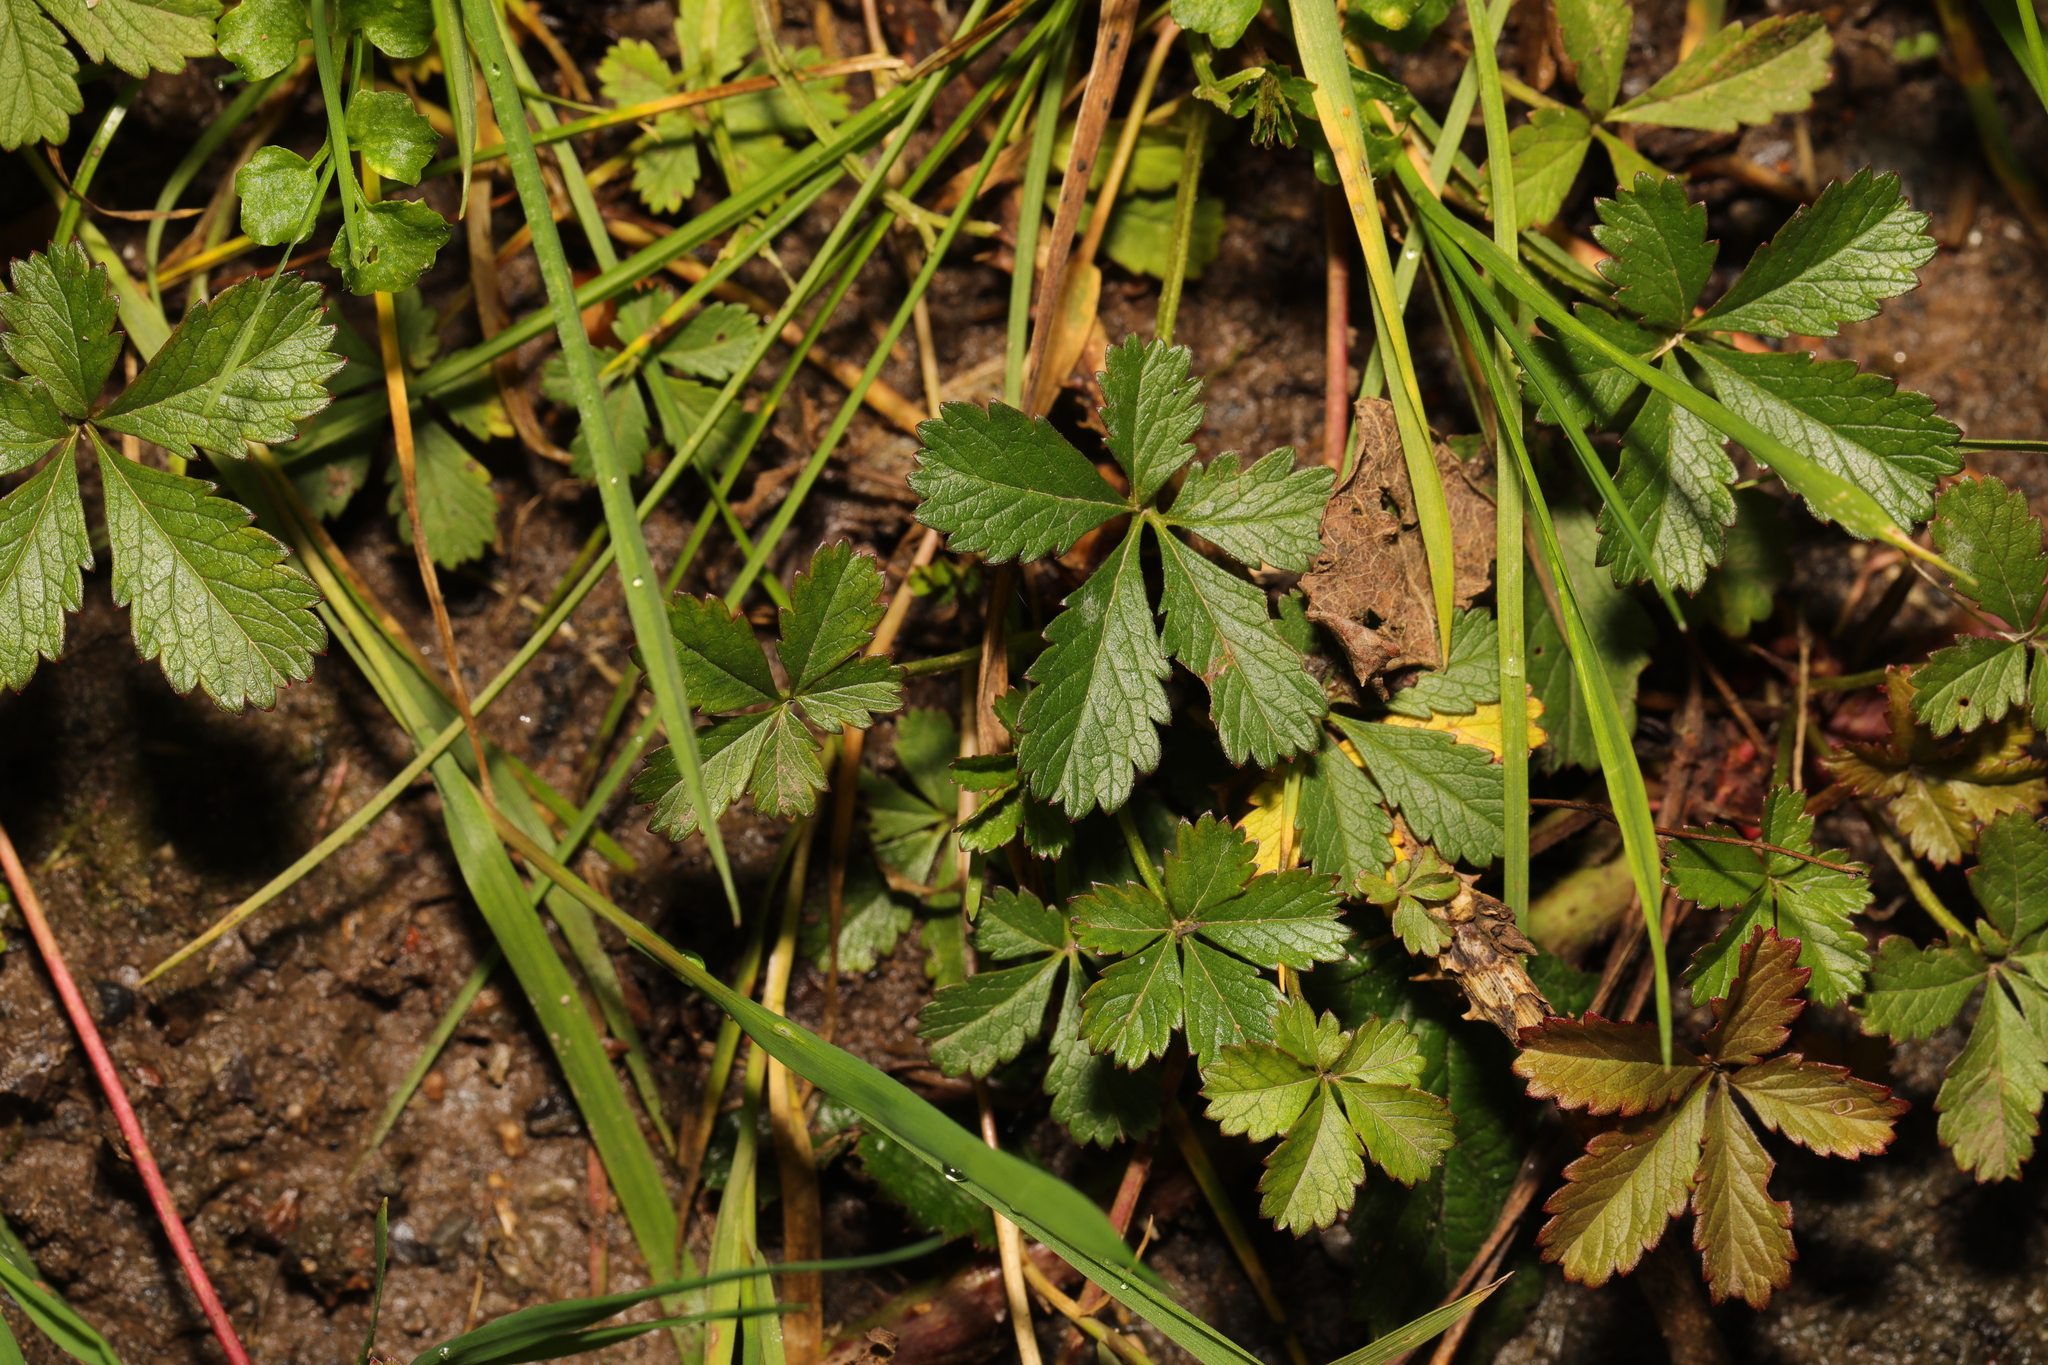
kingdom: Plantae
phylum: Tracheophyta
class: Magnoliopsida
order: Rosales
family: Rosaceae
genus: Potentilla
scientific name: Potentilla reptans
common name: Creeping cinquefoil
